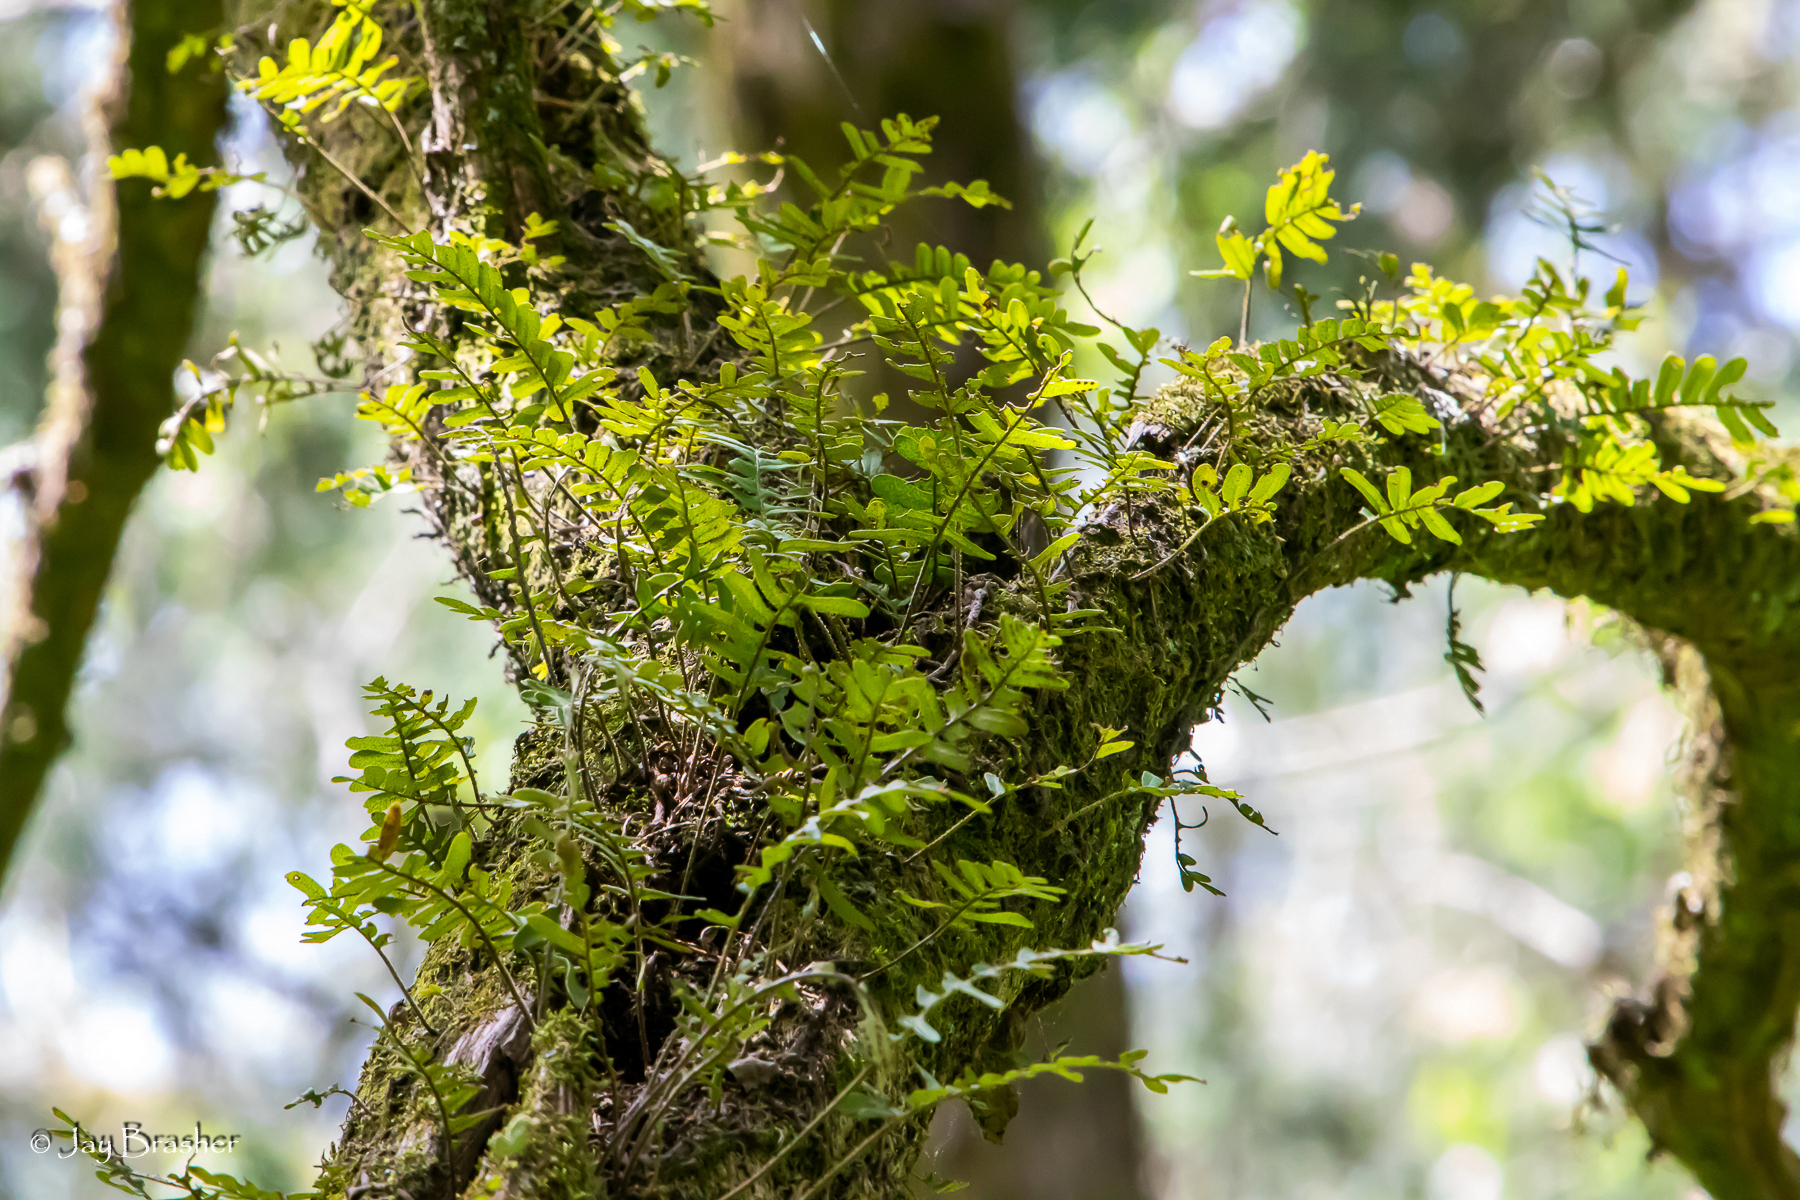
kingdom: Plantae
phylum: Tracheophyta
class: Polypodiopsida
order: Polypodiales
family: Polypodiaceae
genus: Pleopeltis
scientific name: Pleopeltis michauxiana
